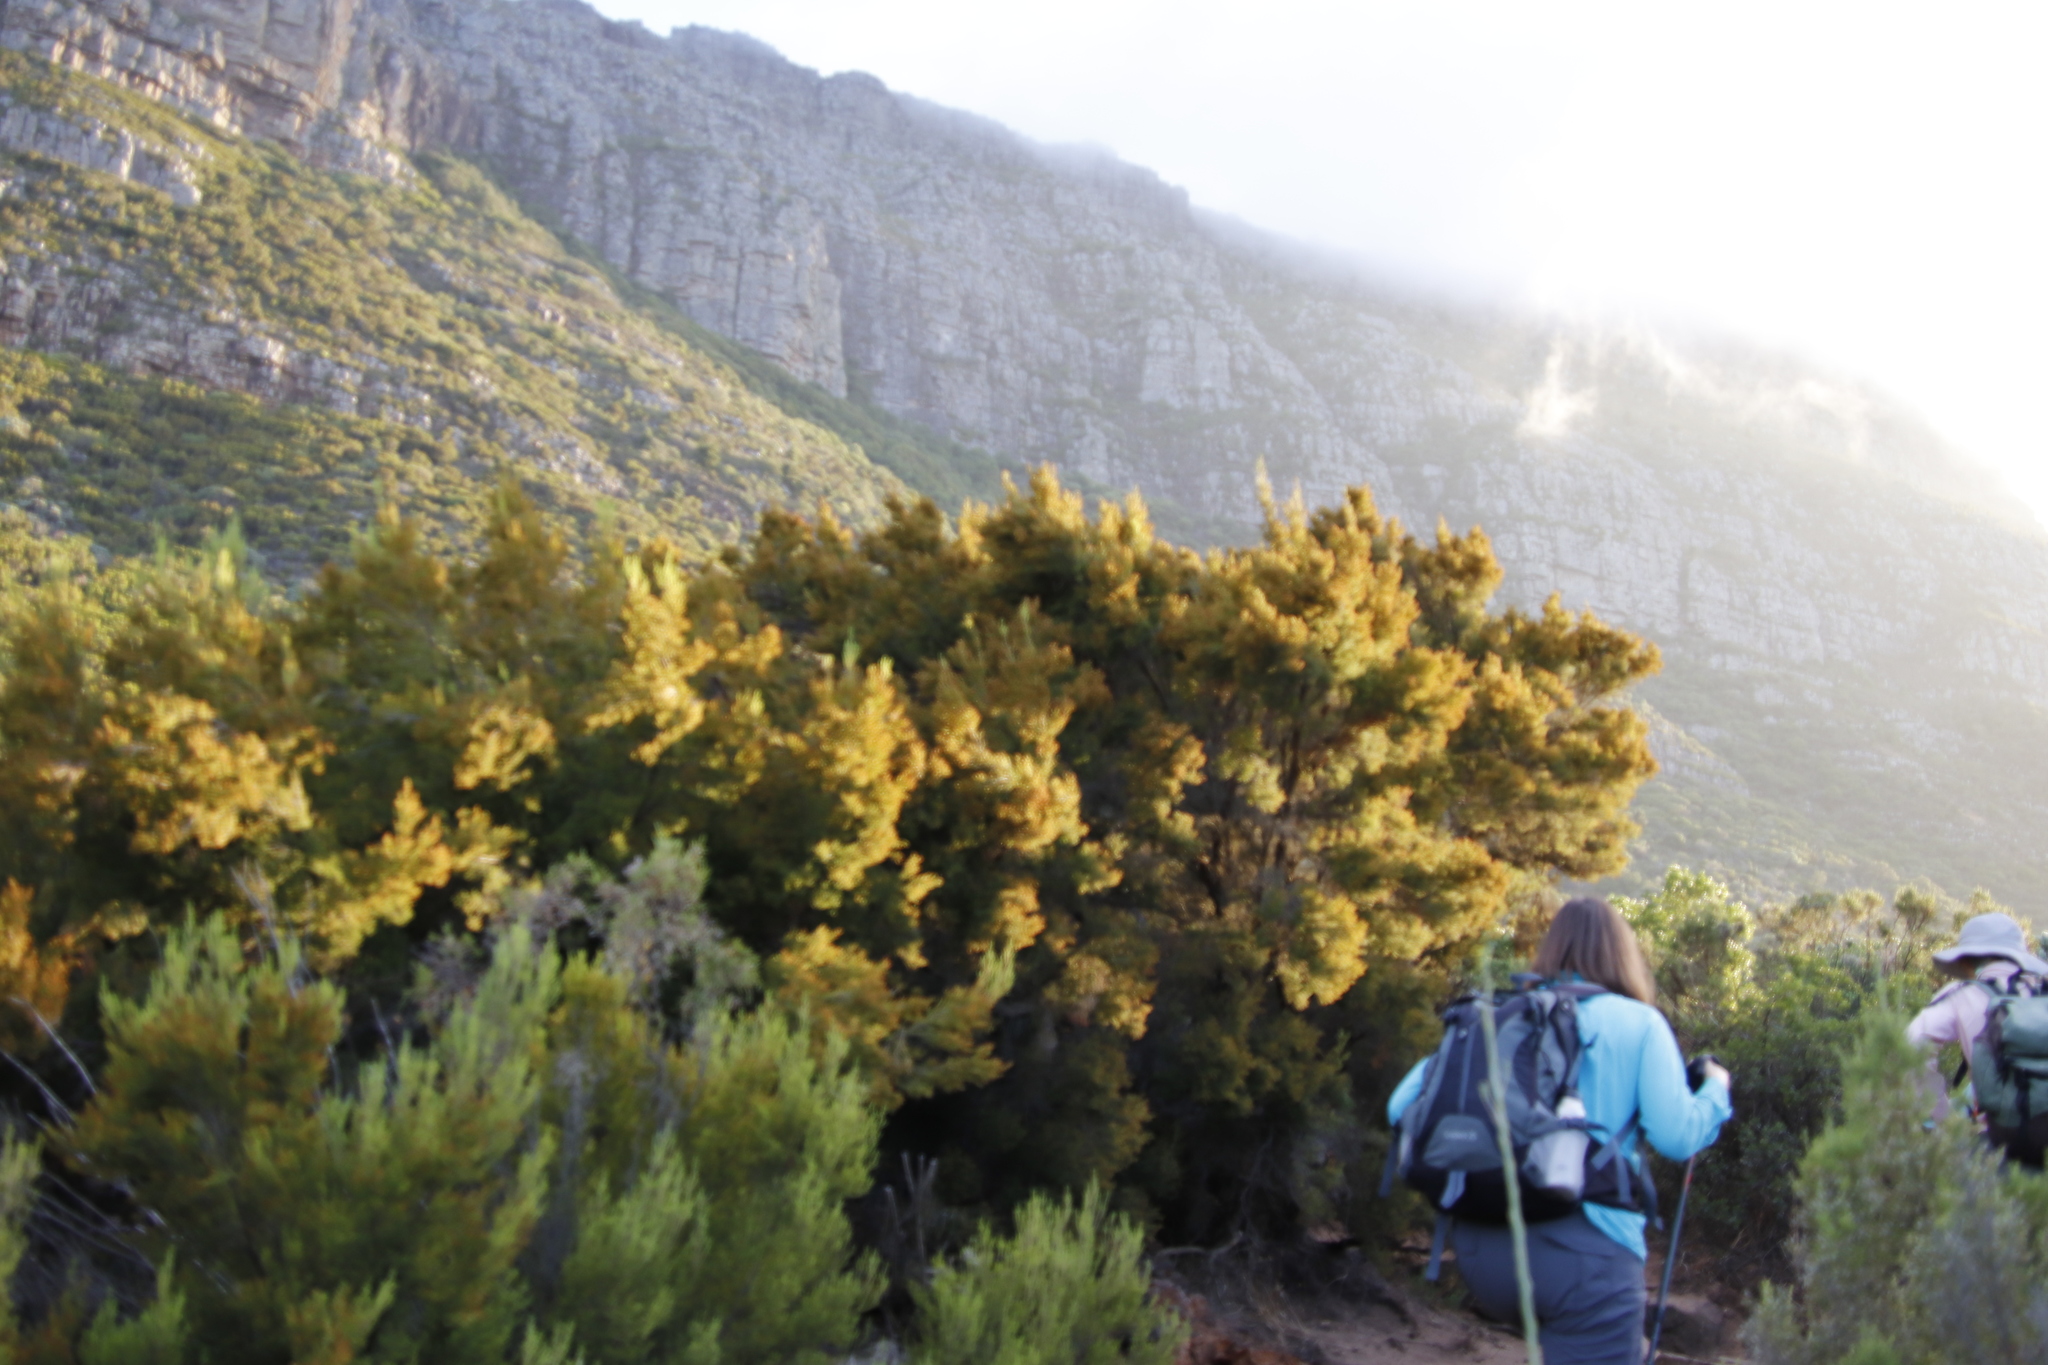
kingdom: Plantae
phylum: Tracheophyta
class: Magnoliopsida
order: Ericales
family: Ericaceae
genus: Erica
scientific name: Erica tristis
